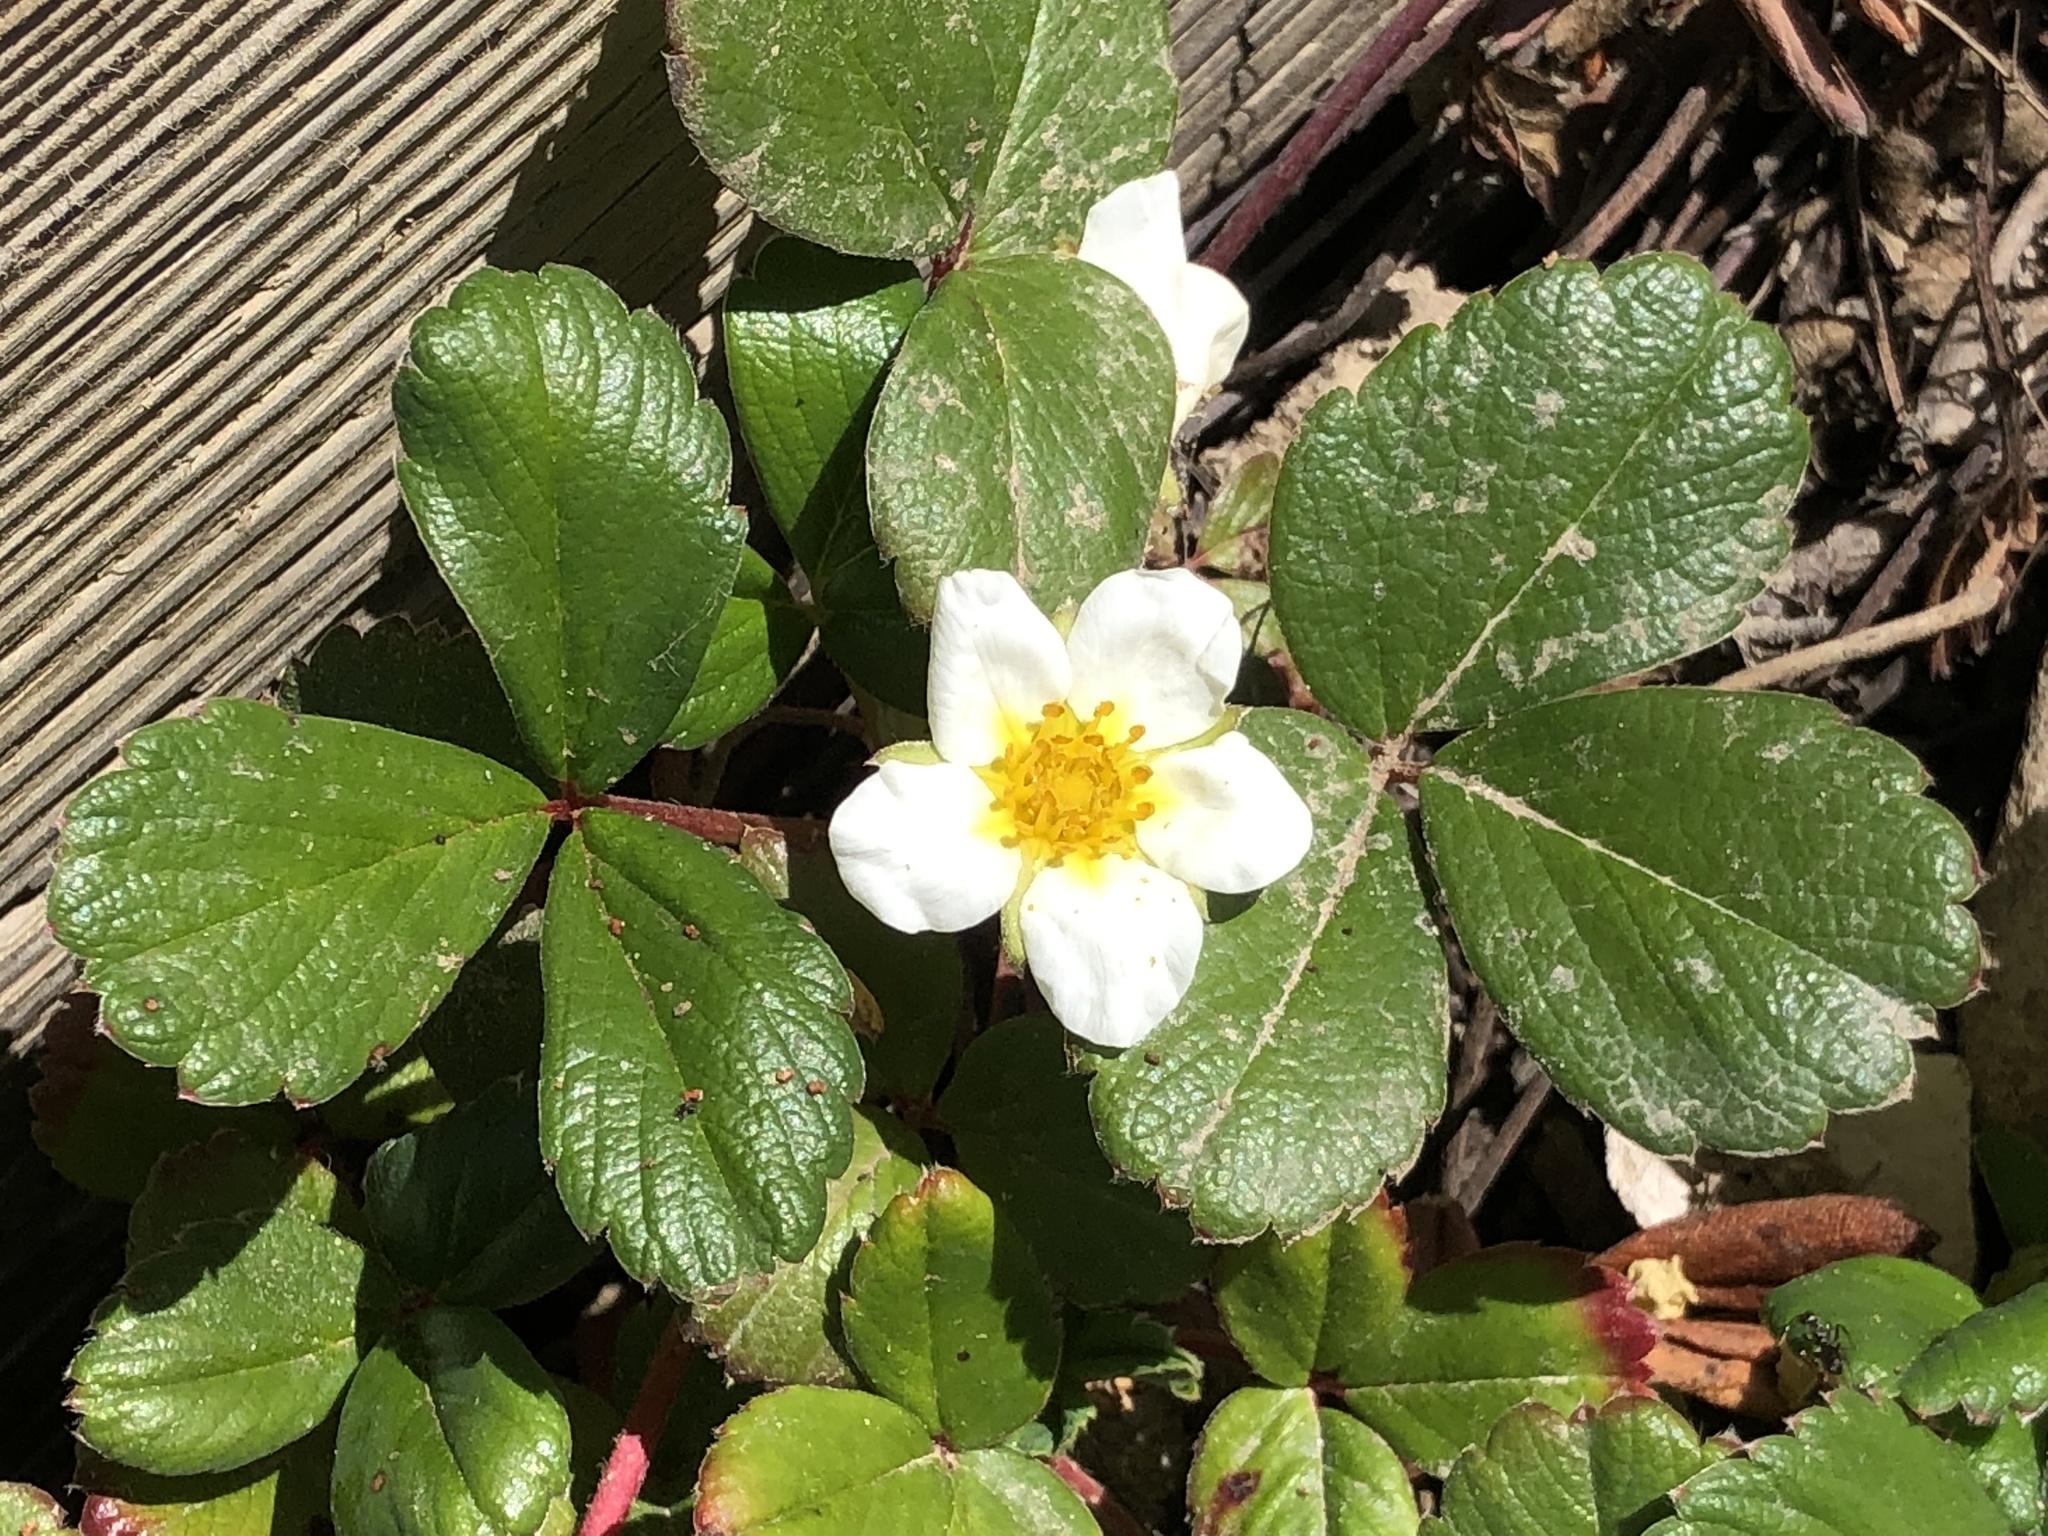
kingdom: Plantae
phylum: Tracheophyta
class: Magnoliopsida
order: Rosales
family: Rosaceae
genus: Fragaria
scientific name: Fragaria chiloensis
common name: Beach strawberry
